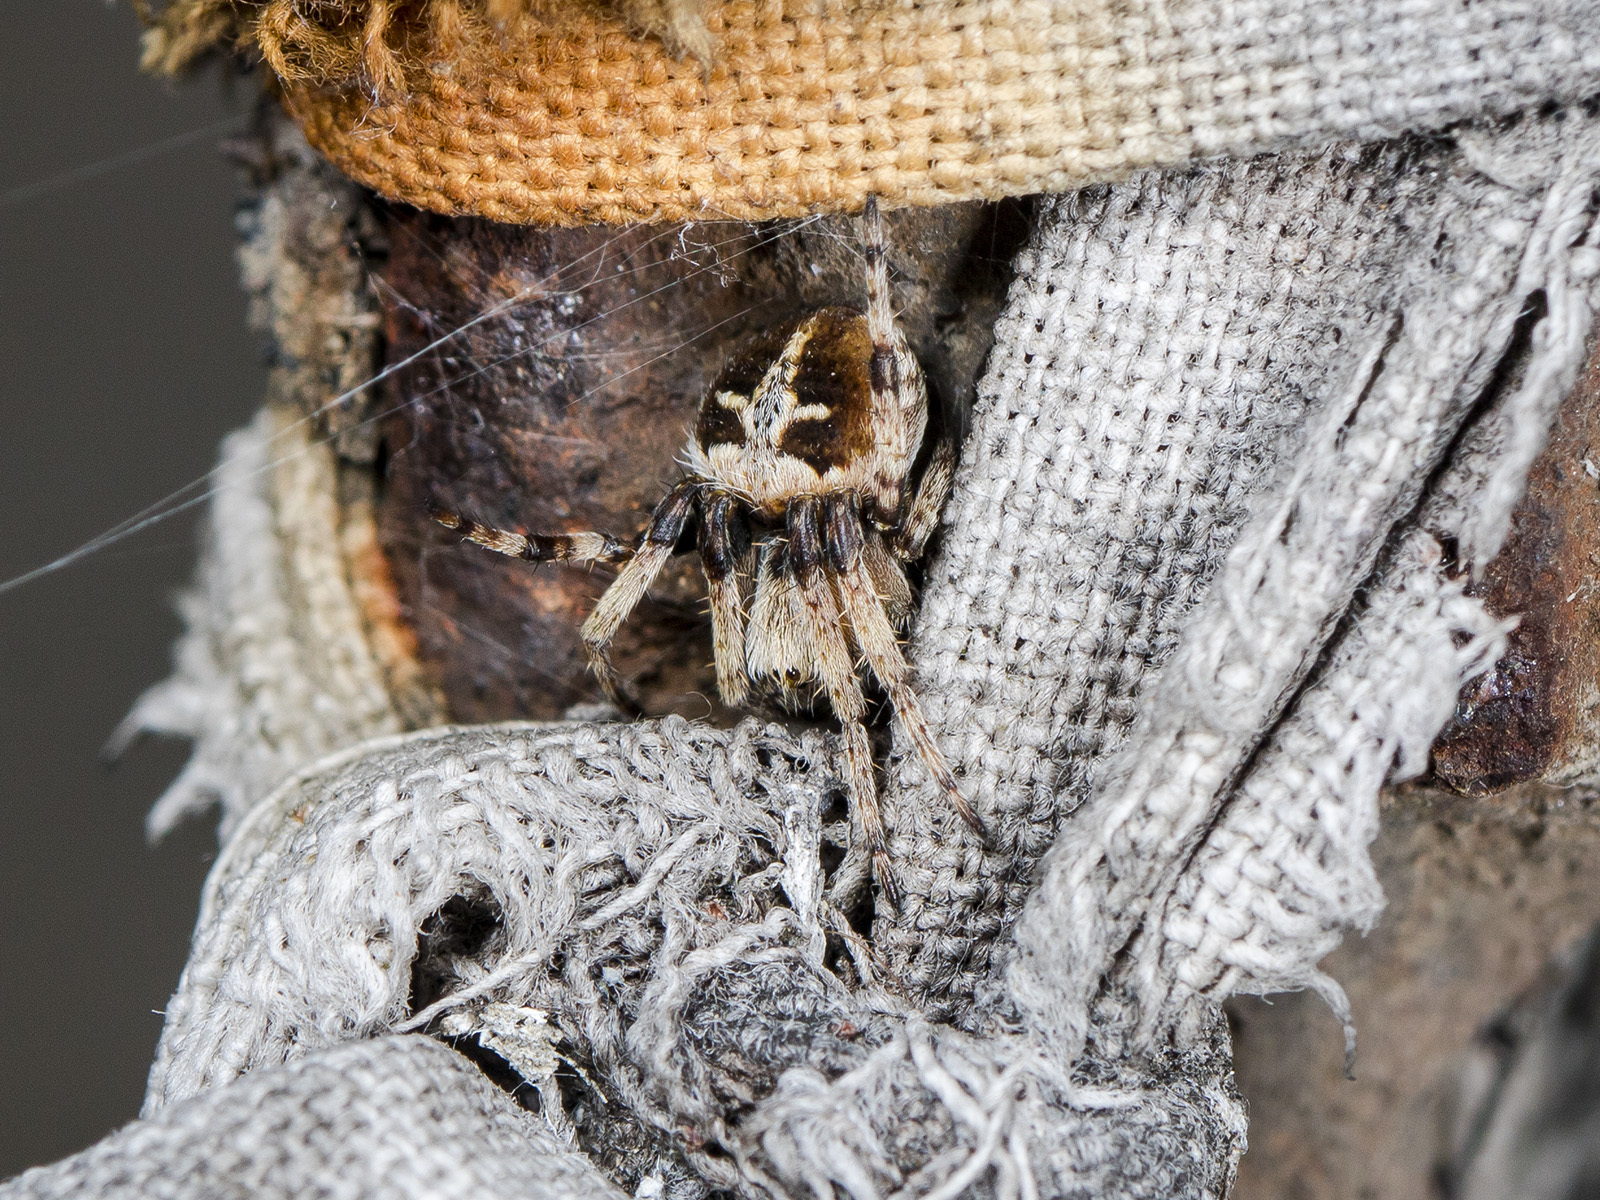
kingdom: Animalia
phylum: Arthropoda
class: Arachnida
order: Araneae
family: Araneidae
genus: Agalenatea
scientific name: Agalenatea redii
